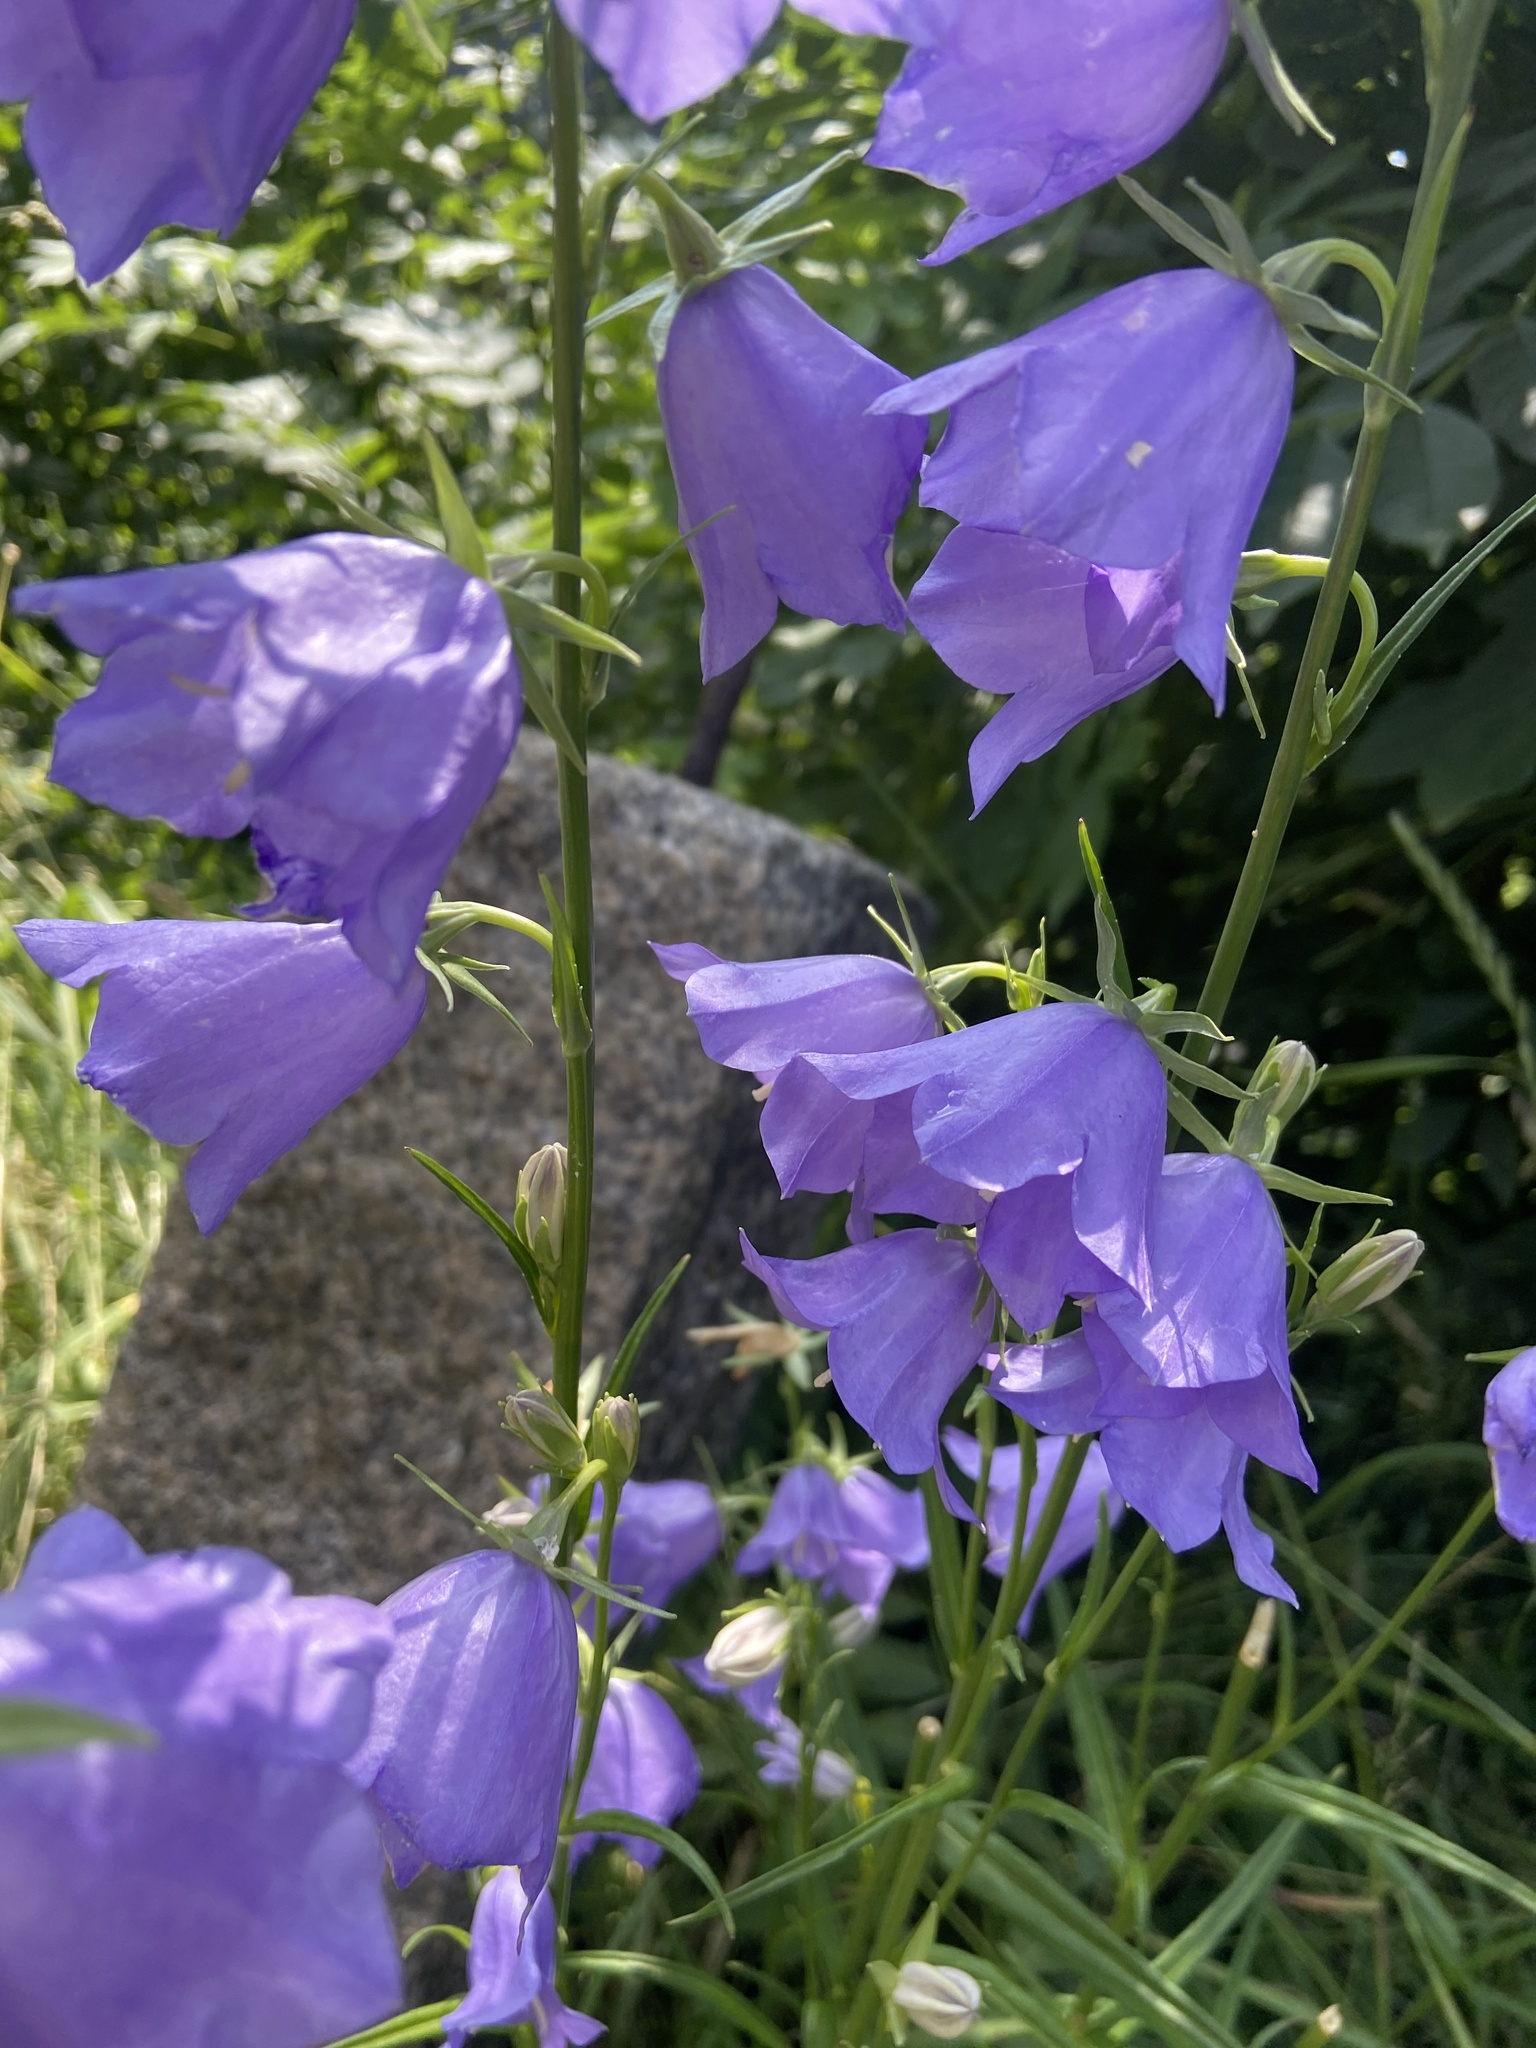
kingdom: Plantae
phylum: Tracheophyta
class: Magnoliopsida
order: Asterales
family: Campanulaceae
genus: Campanula
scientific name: Campanula persicifolia
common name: Peach-leaved bellflower
